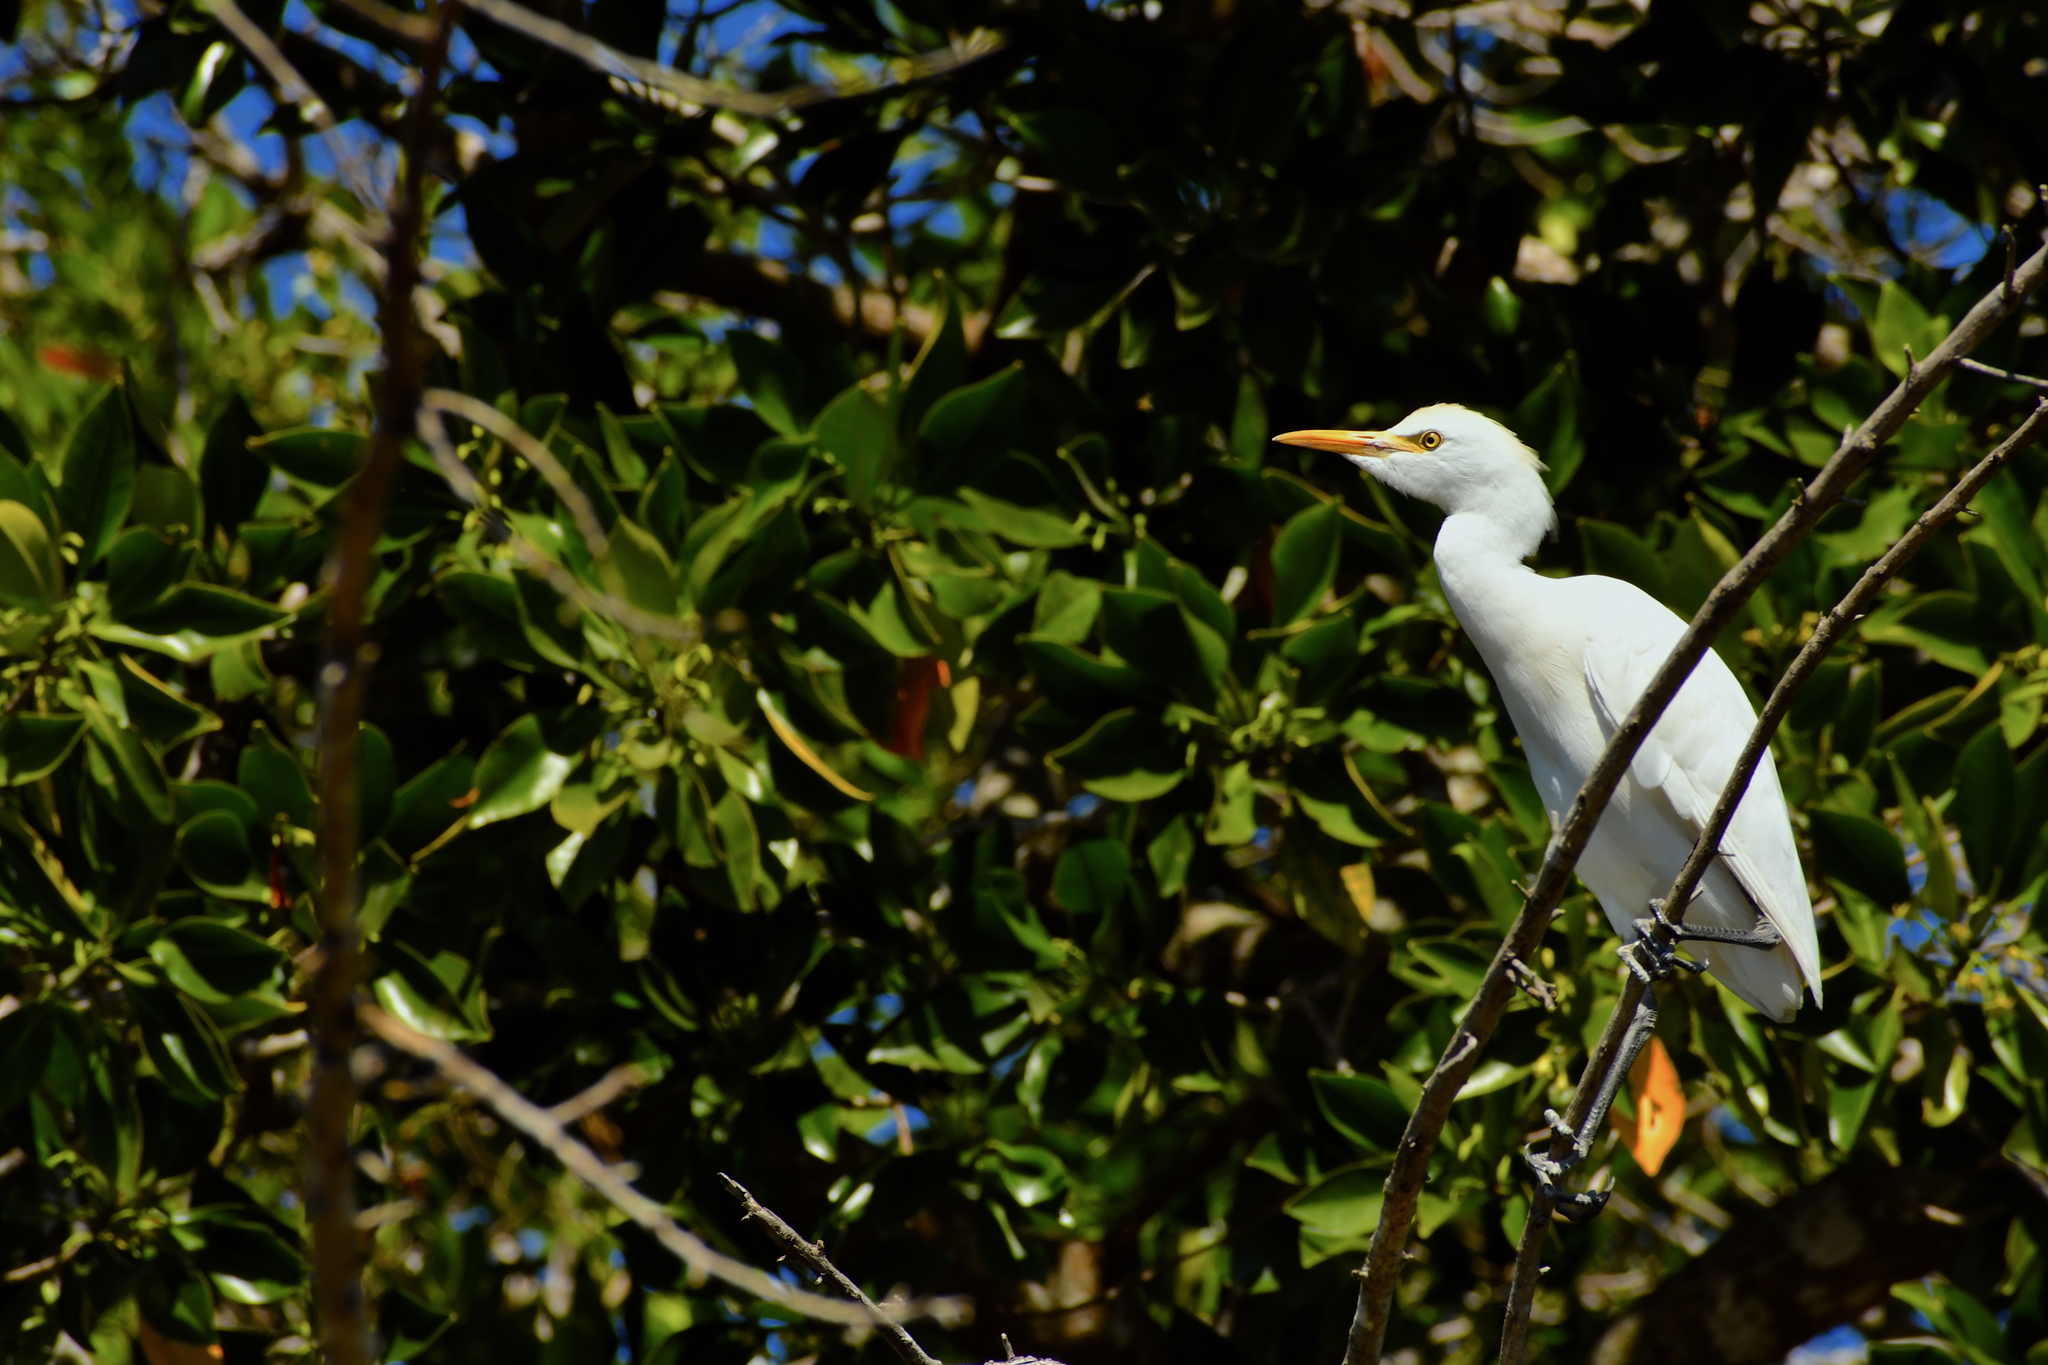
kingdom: Animalia
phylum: Chordata
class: Aves
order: Pelecaniformes
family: Ardeidae
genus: Bubulcus
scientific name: Bubulcus ibis
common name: Cattle egret
